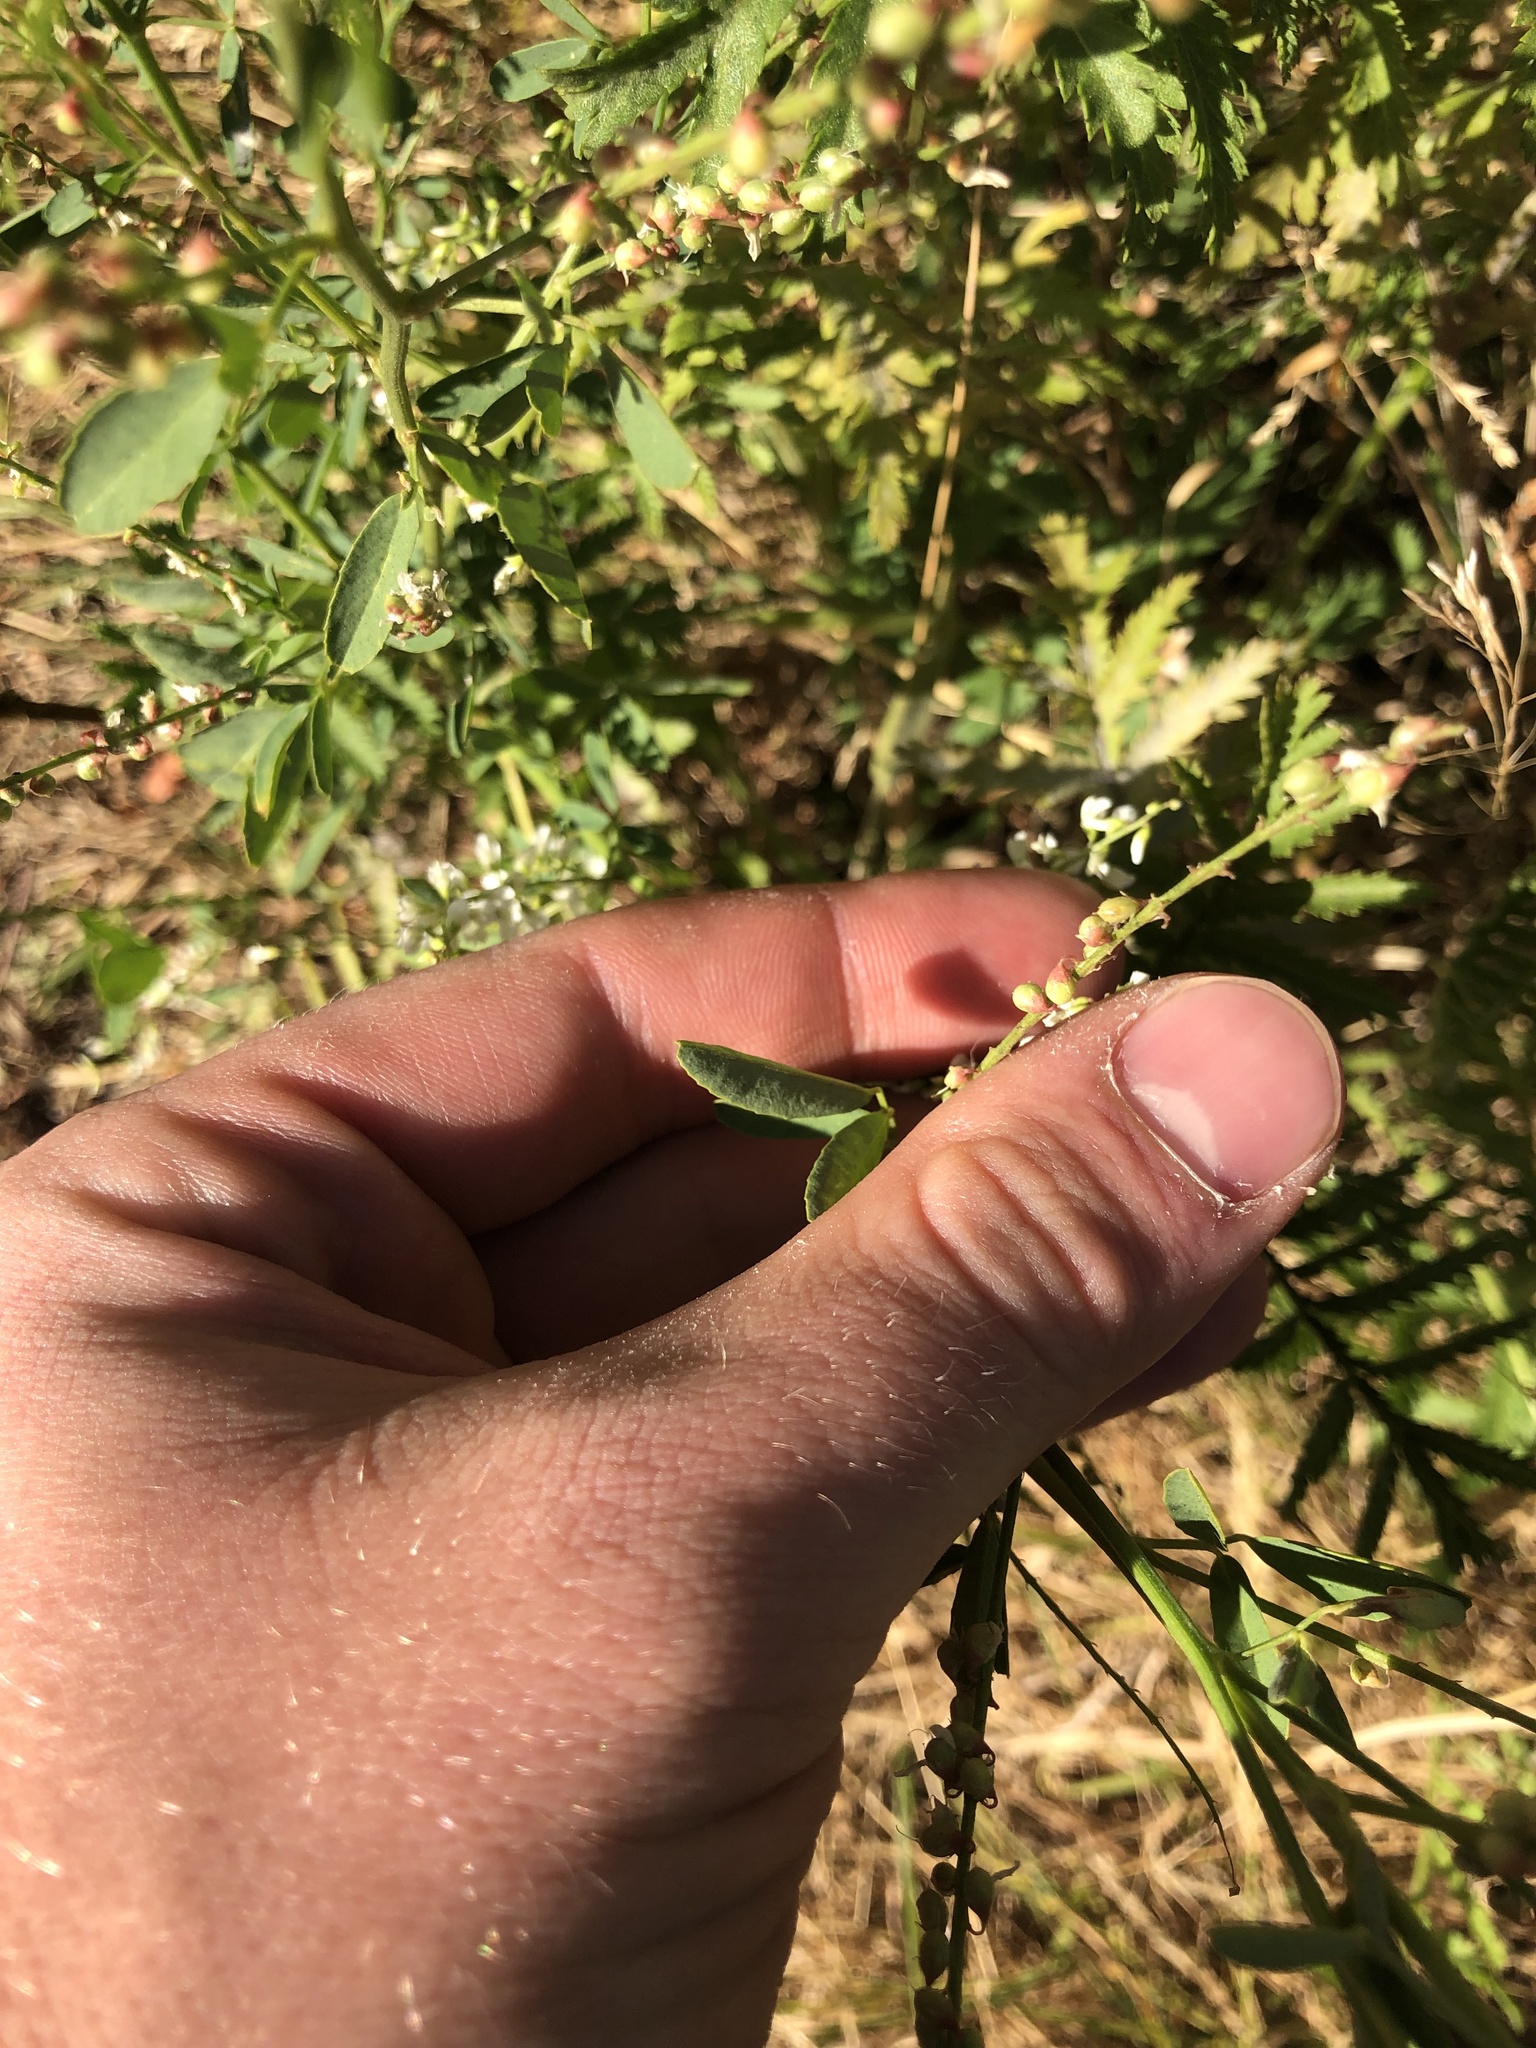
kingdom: Plantae
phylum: Tracheophyta
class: Magnoliopsida
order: Fabales
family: Fabaceae
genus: Melilotus
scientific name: Melilotus albus
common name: White melilot
